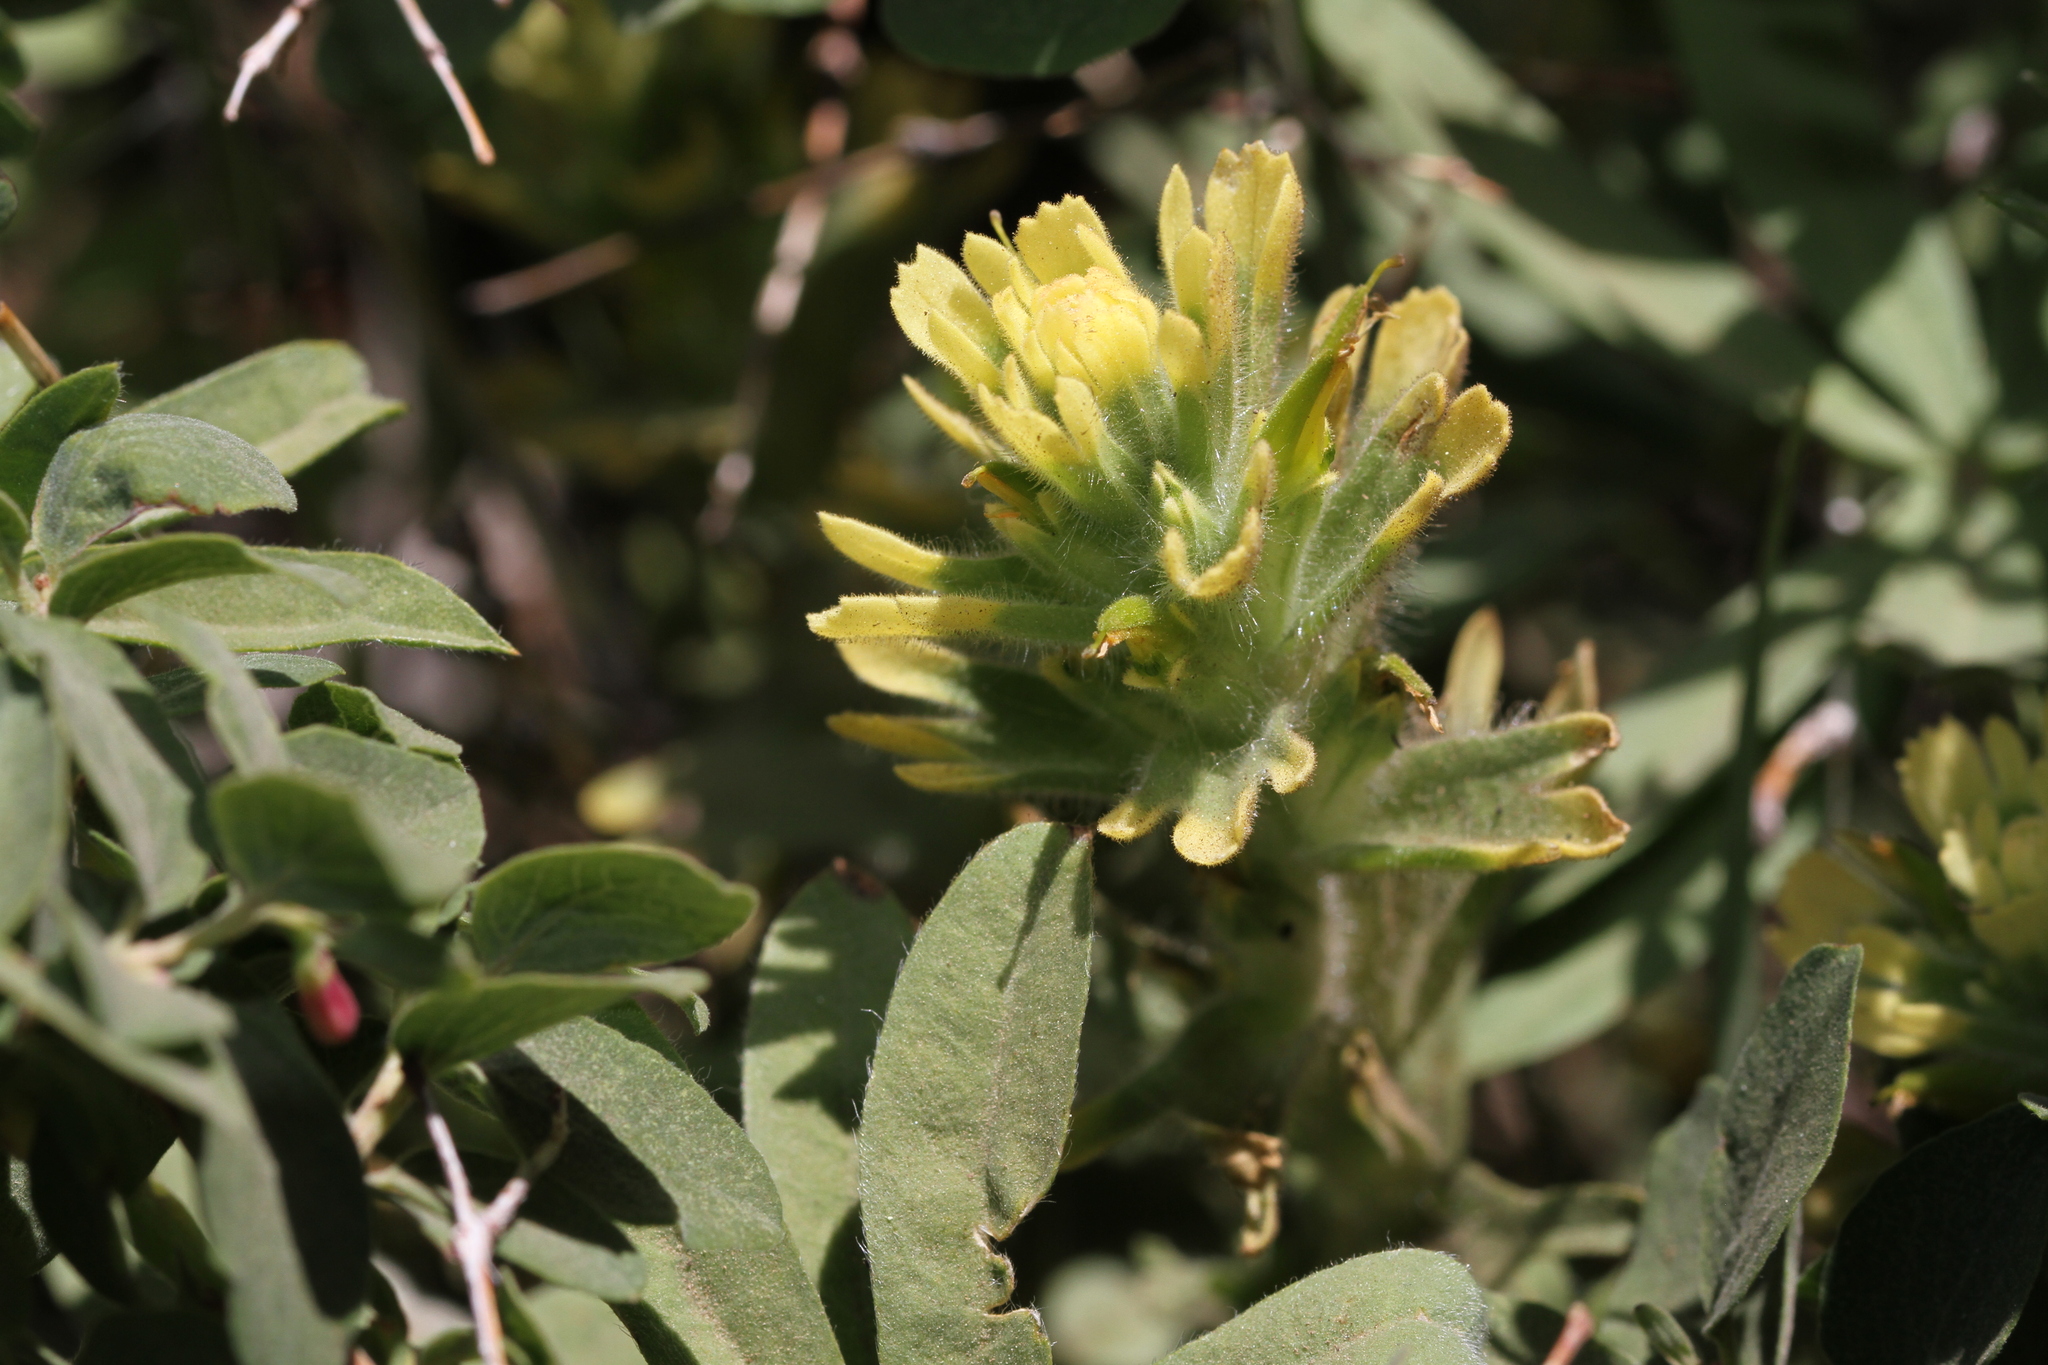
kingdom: Plantae
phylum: Tracheophyta
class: Magnoliopsida
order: Lamiales
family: Orobanchaceae
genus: Castilleja
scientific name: Castilleja applegatei
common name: Wavy-leaf paintbrush
